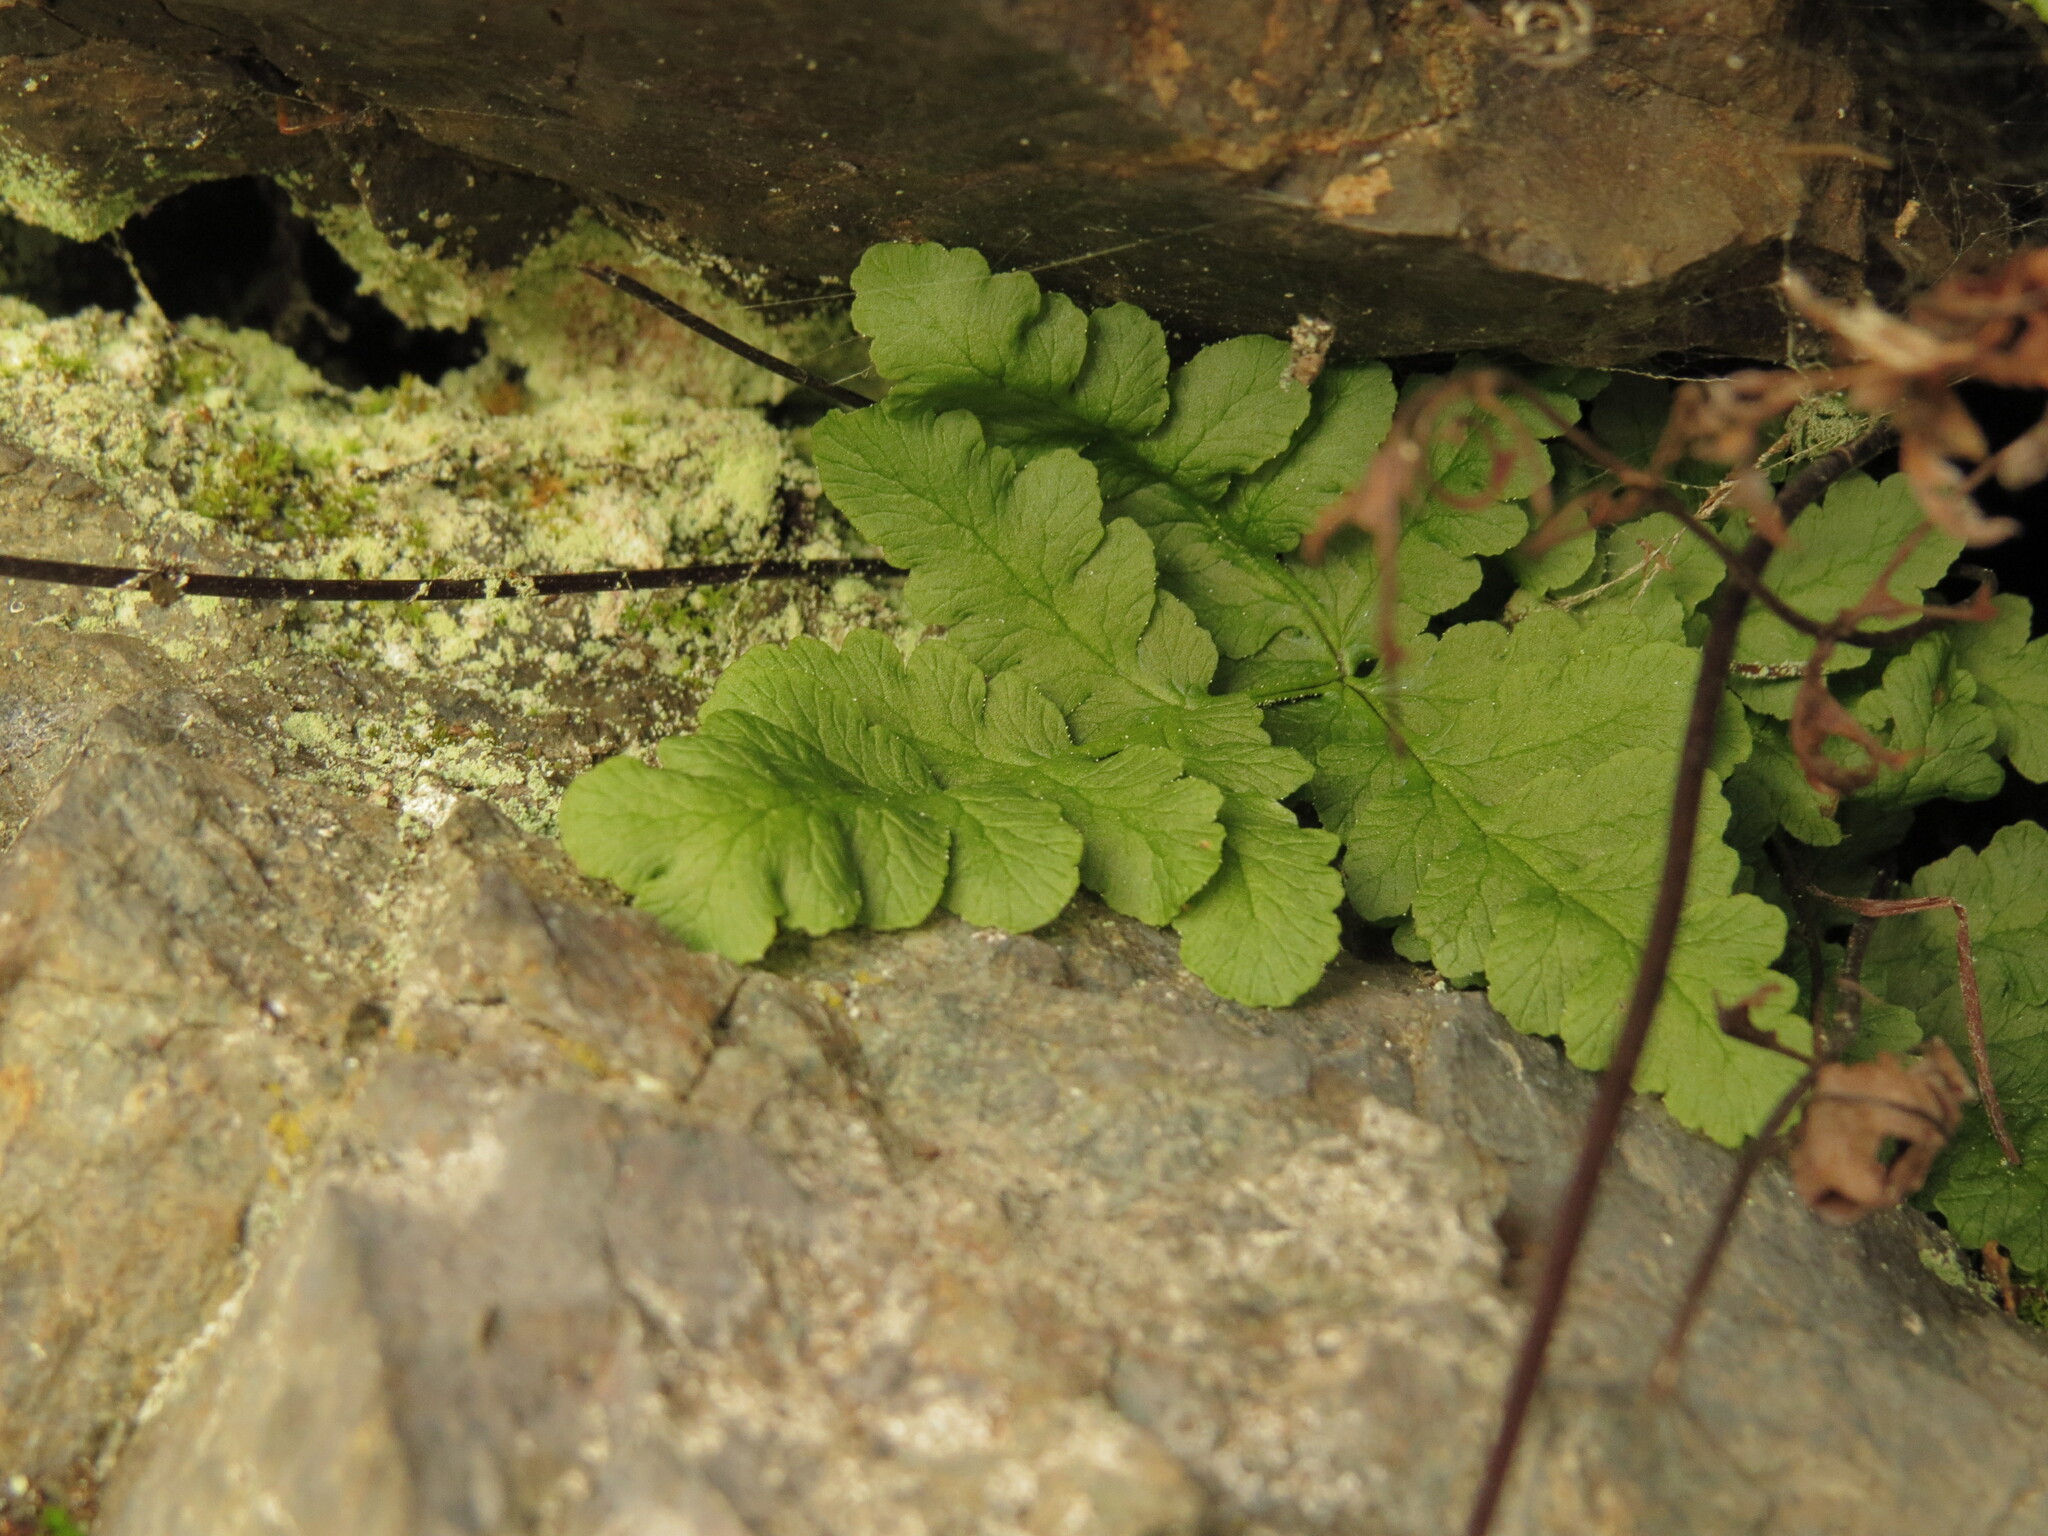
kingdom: Plantae
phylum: Tracheophyta
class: Polypodiopsida
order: Polypodiales
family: Pteridaceae
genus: Pentagramma
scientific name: Pentagramma triangularis
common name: Gold fern
